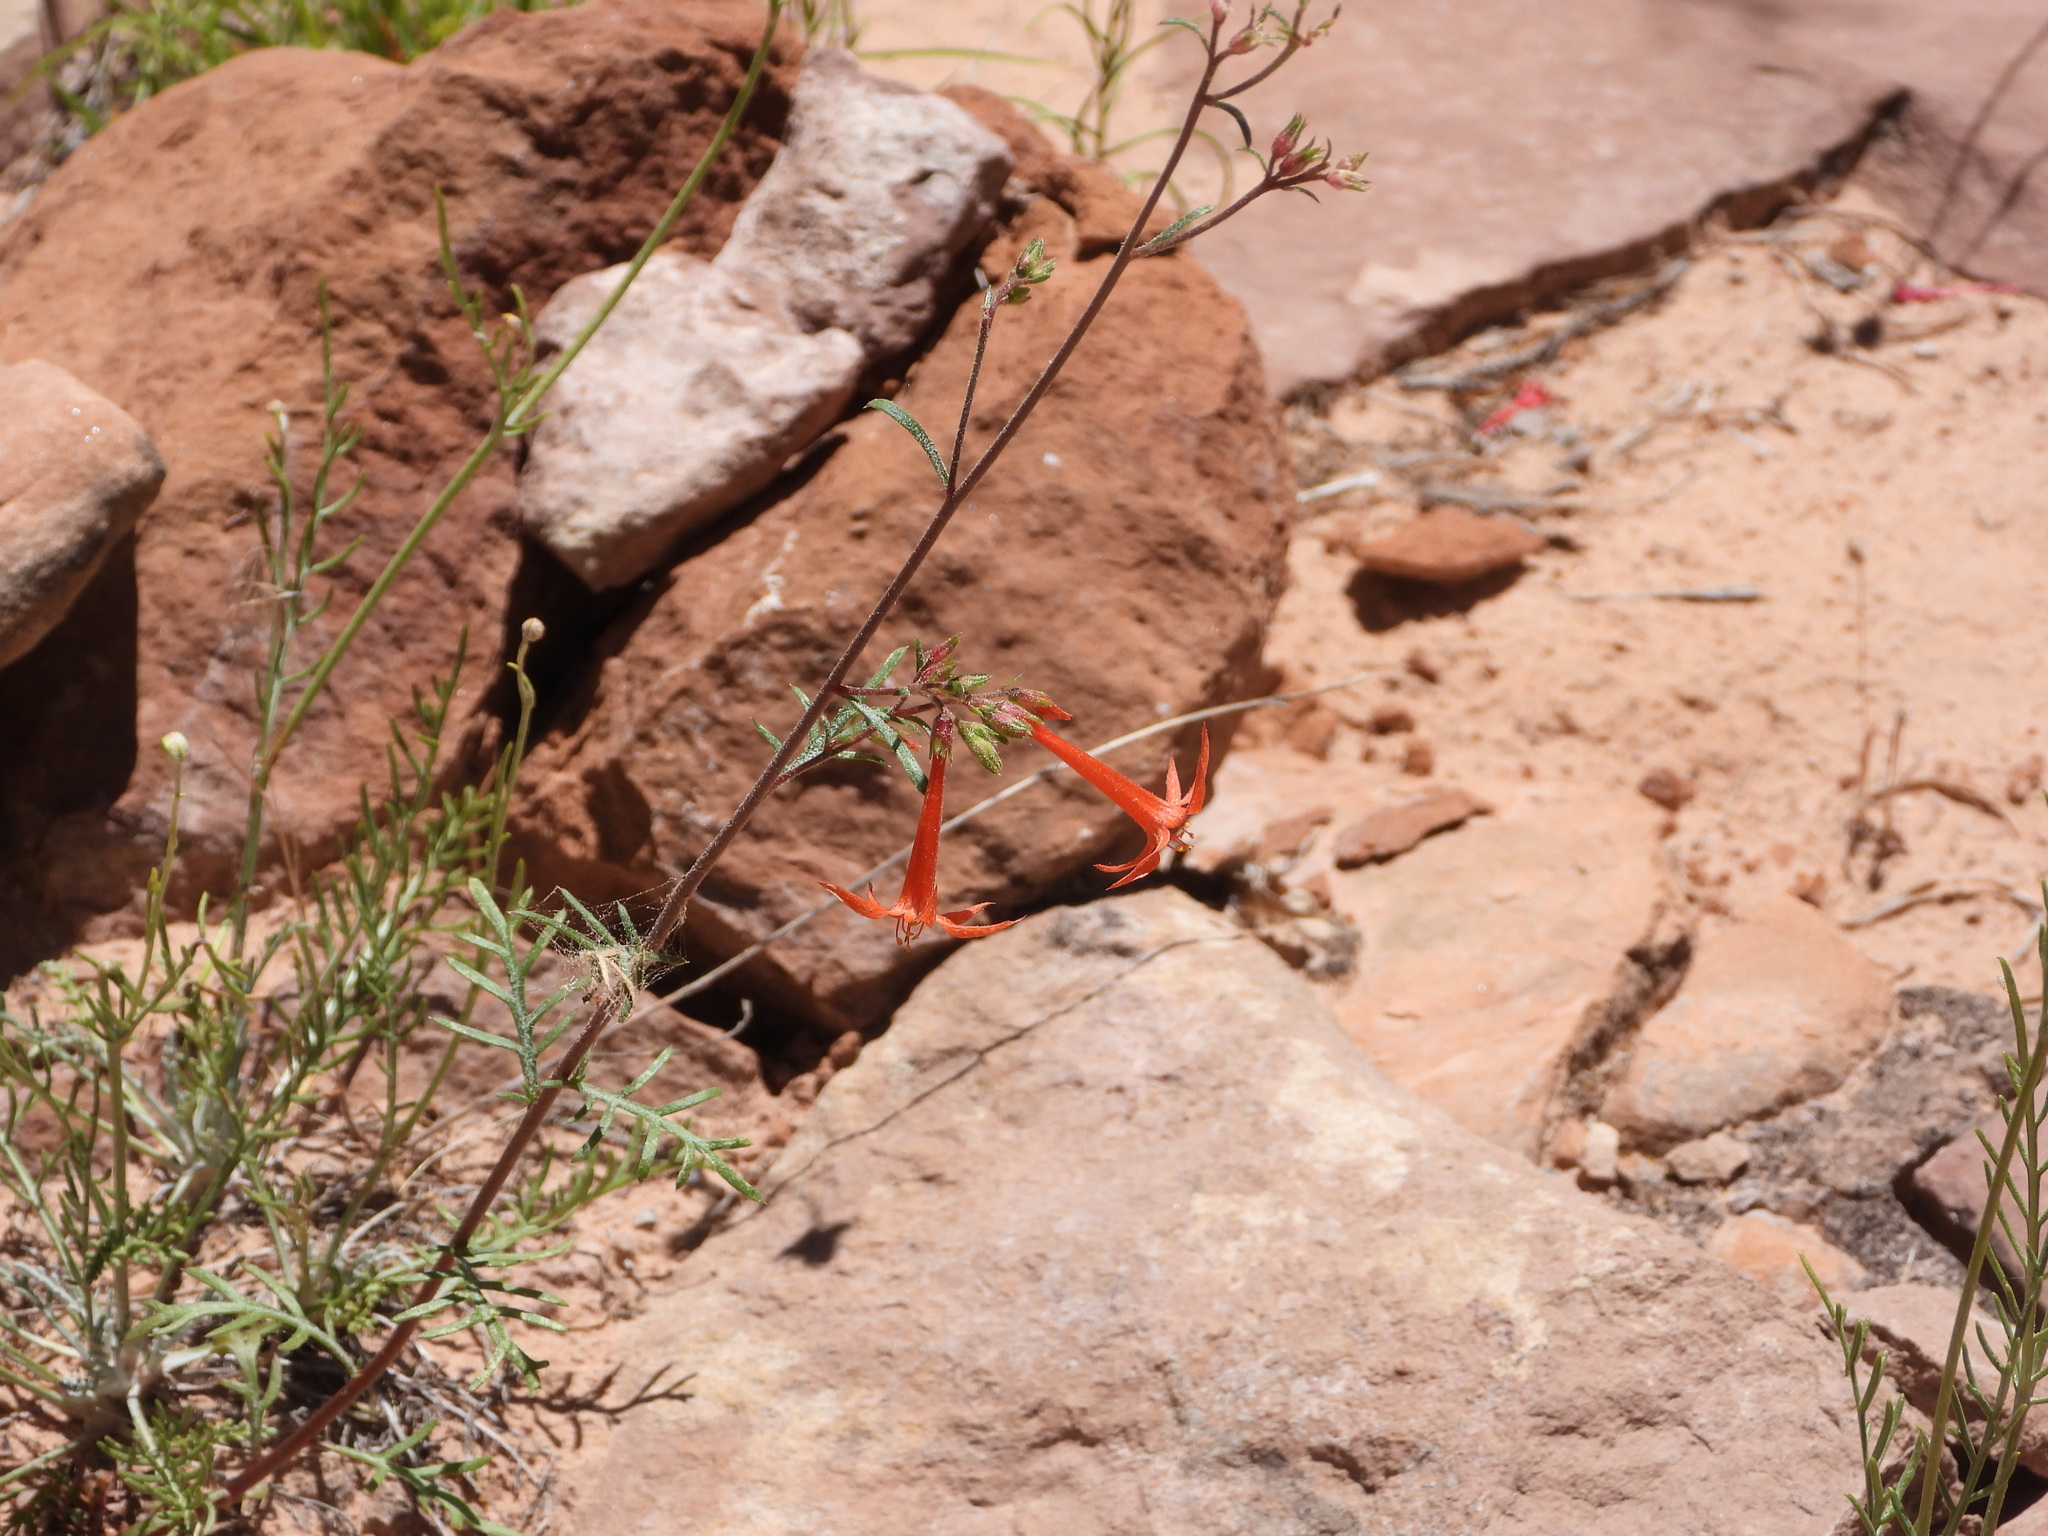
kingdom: Plantae
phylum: Tracheophyta
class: Magnoliopsida
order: Ericales
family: Polemoniaceae
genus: Ipomopsis
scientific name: Ipomopsis aggregata
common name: Scarlet gilia
